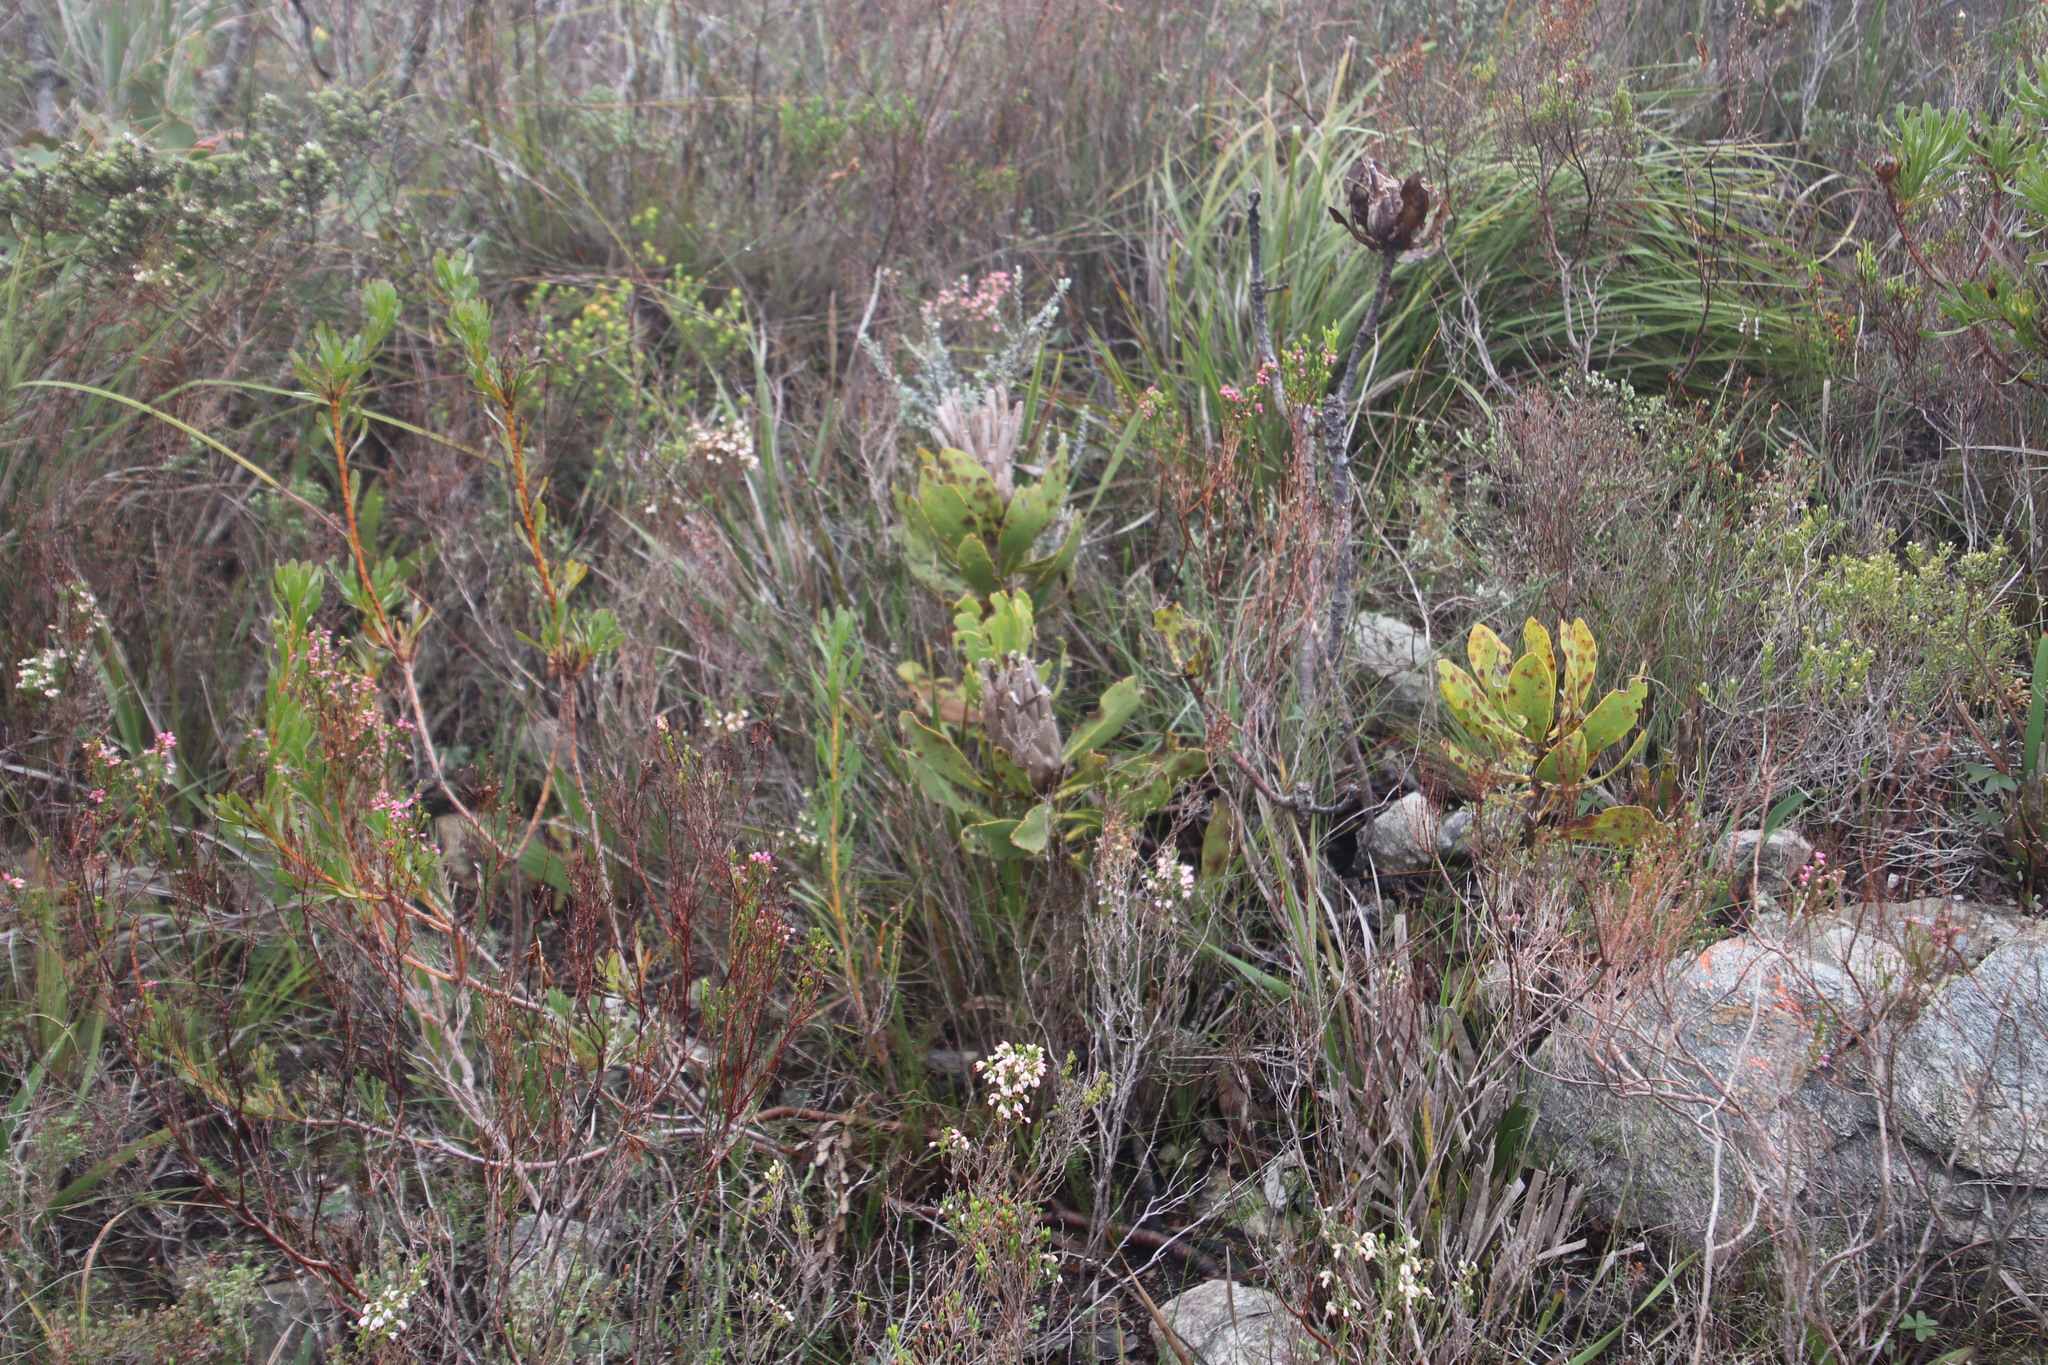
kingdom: Plantae
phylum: Tracheophyta
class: Magnoliopsida
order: Proteales
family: Proteaceae
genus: Protea
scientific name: Protea speciosa
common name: Brown-beard sugarbush
